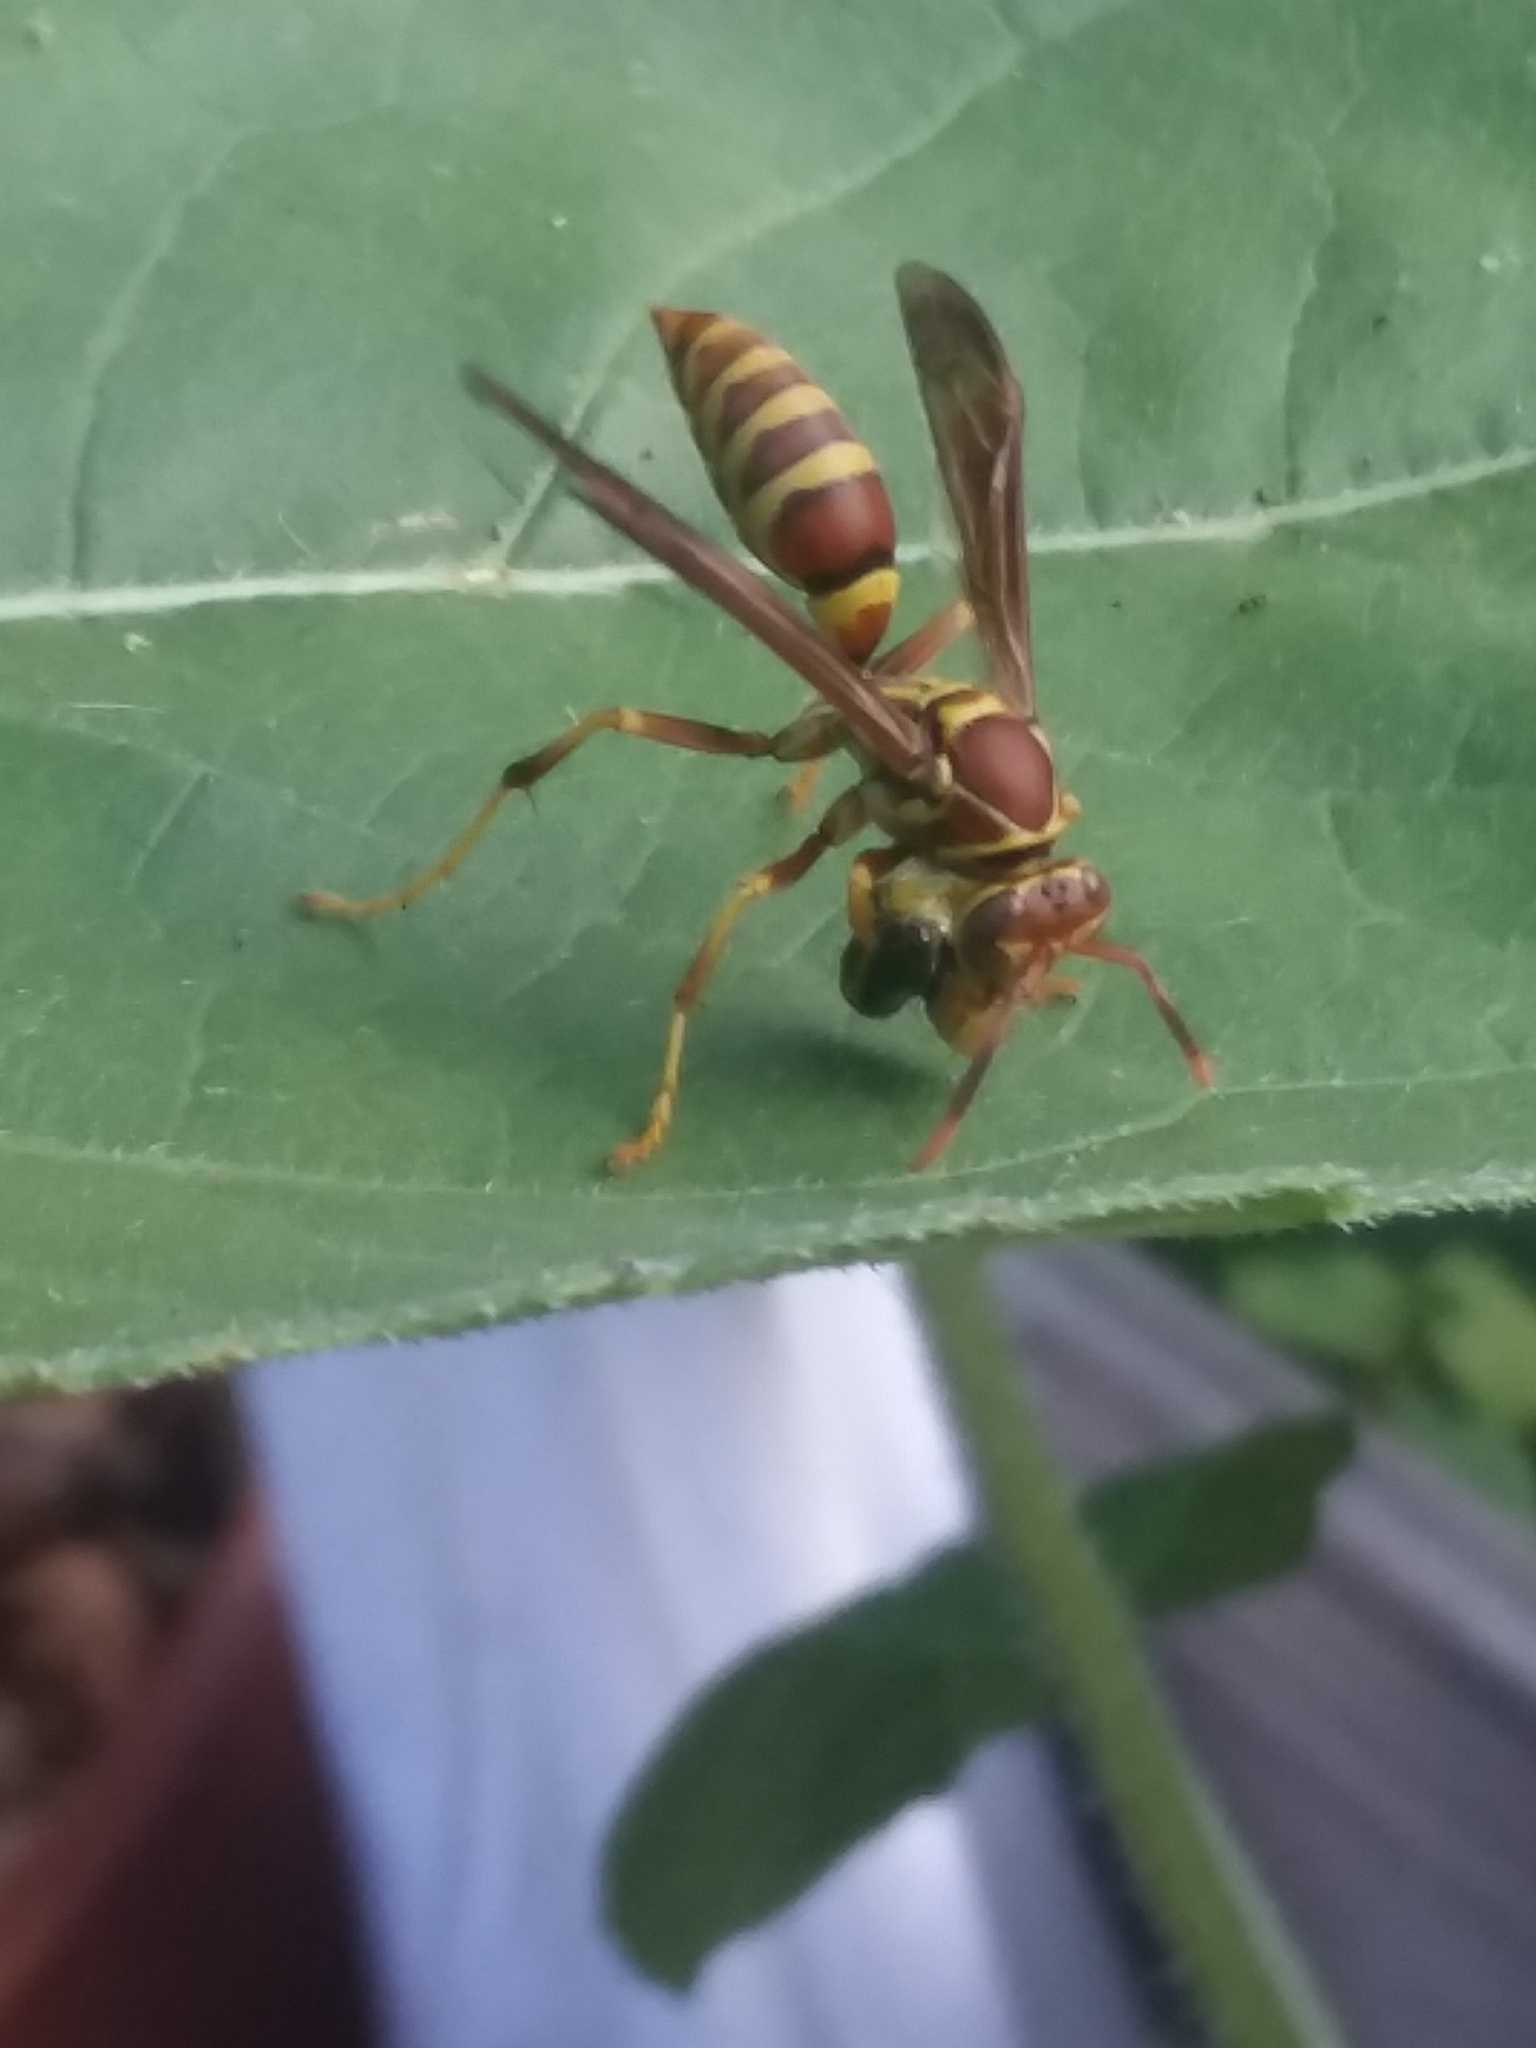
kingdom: Animalia
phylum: Arthropoda
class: Insecta
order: Hymenoptera
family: Eumenidae
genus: Polistes
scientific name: Polistes exclamans
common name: Paper wasp
